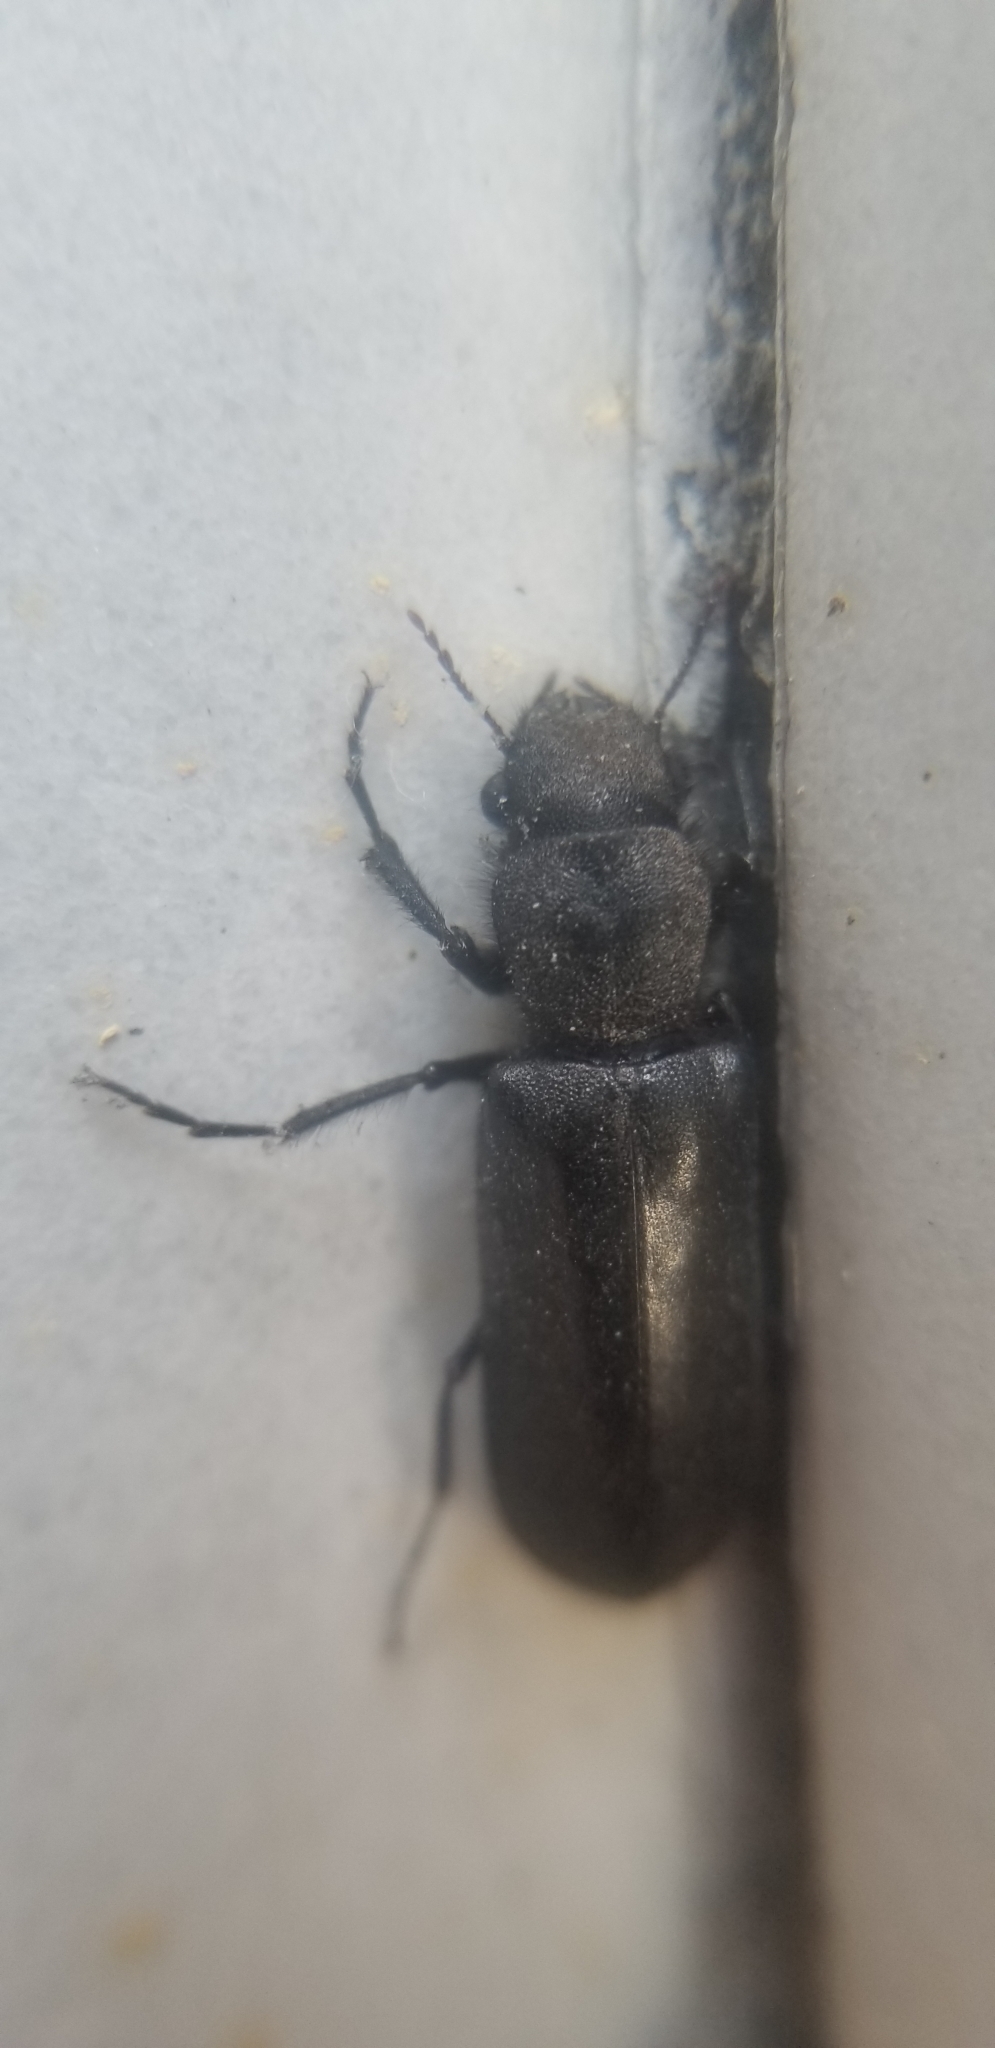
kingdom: Animalia
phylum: Arthropoda
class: Insecta
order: Coleoptera
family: Bostrichidae
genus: Polycaon
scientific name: Polycaon stoutii
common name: Powderpost beetle
